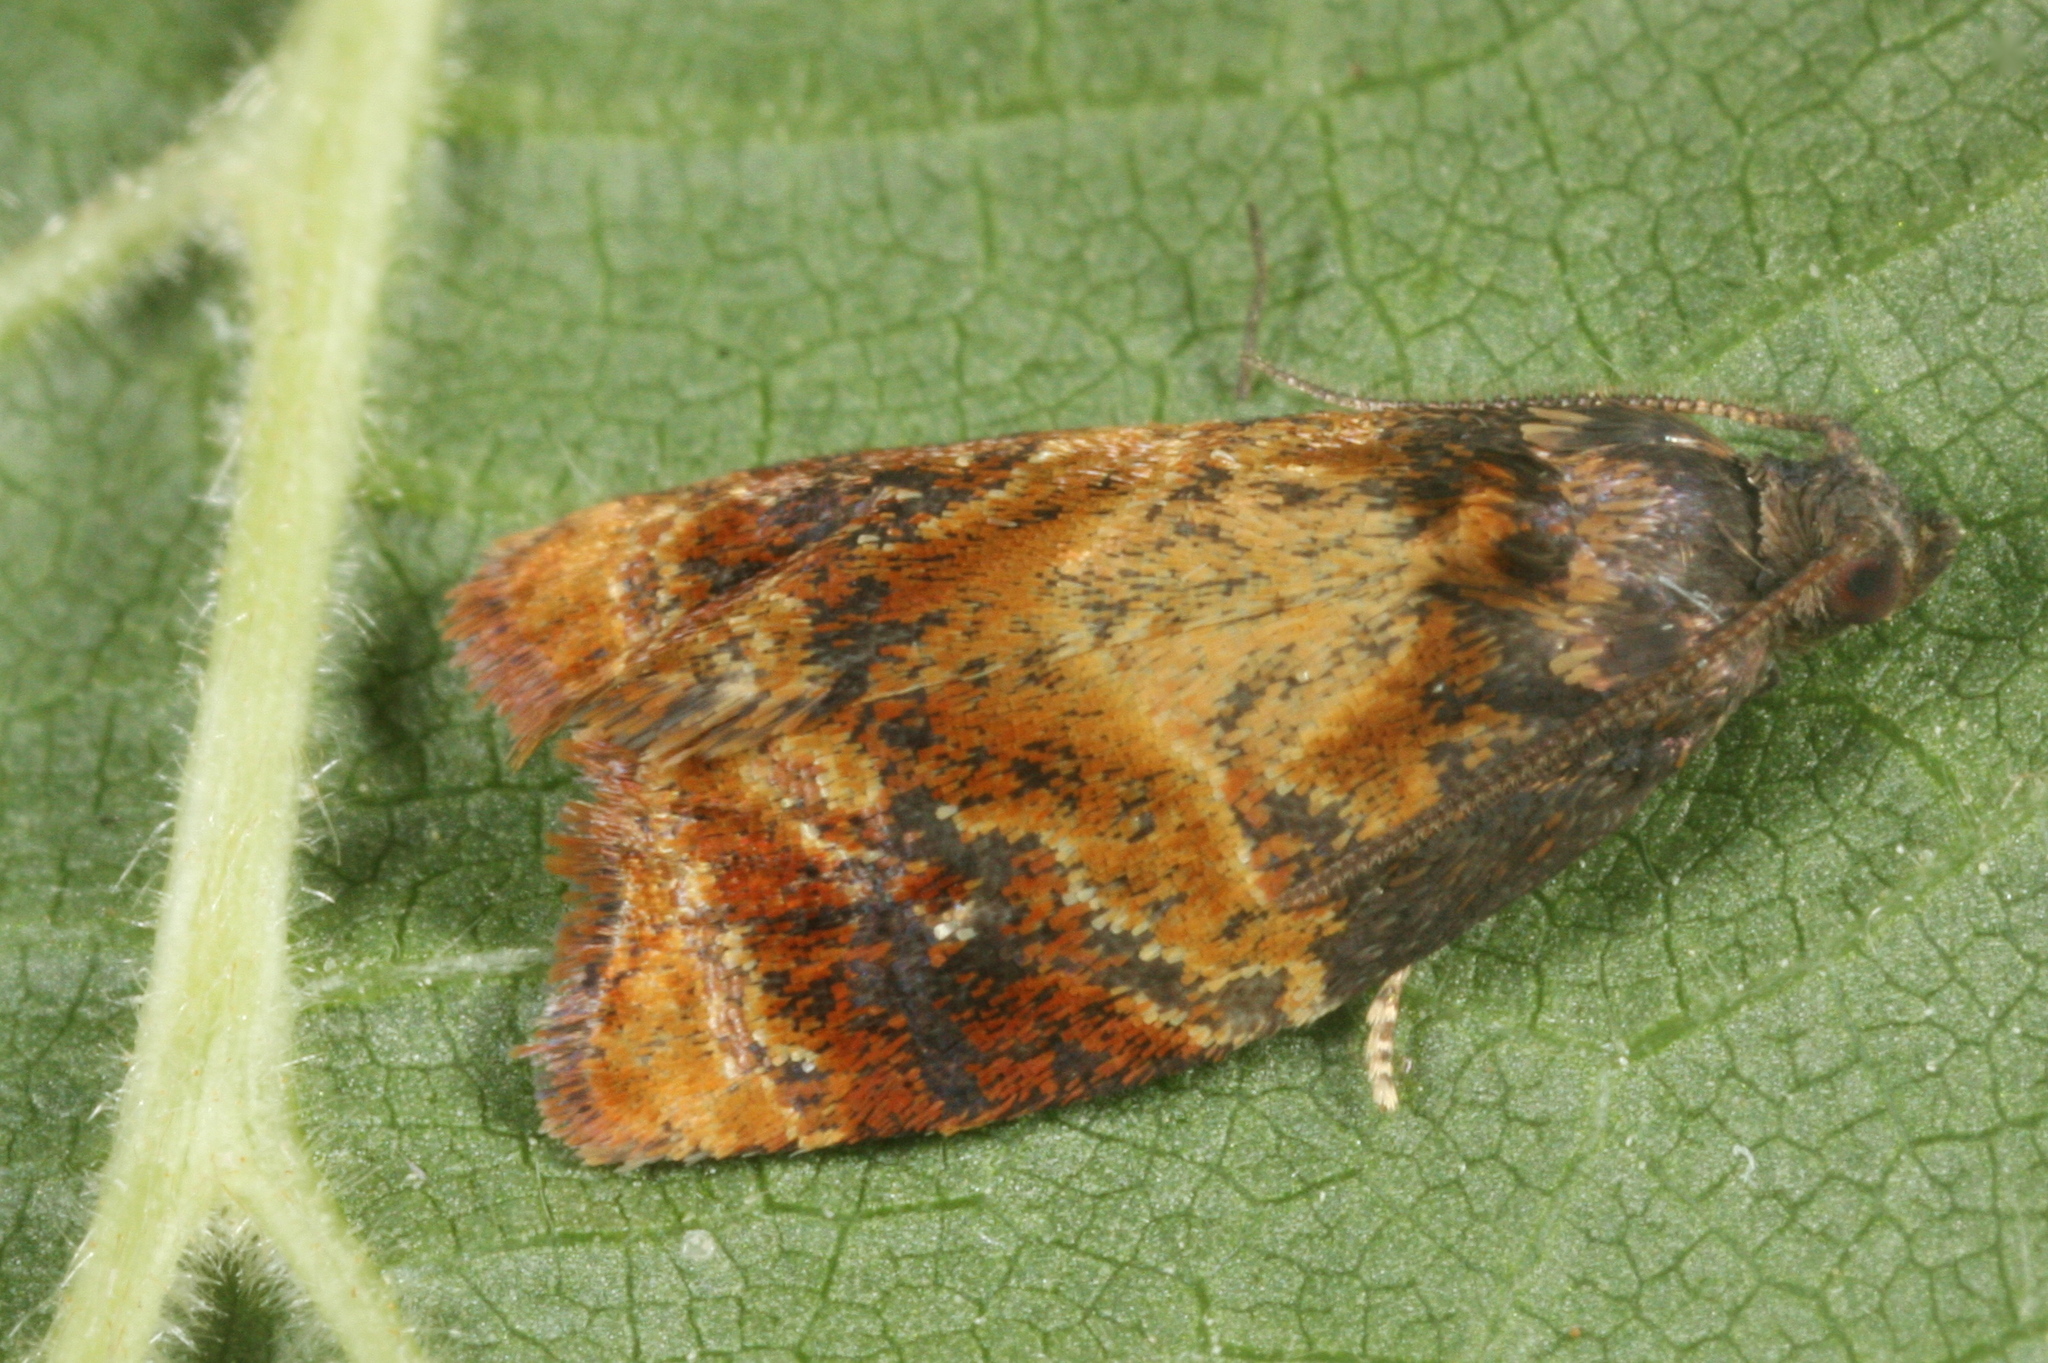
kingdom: Animalia
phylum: Arthropoda
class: Insecta
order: Lepidoptera
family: Tortricidae
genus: Ditula
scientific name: Ditula angustiorana
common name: Red-barred tortrix
